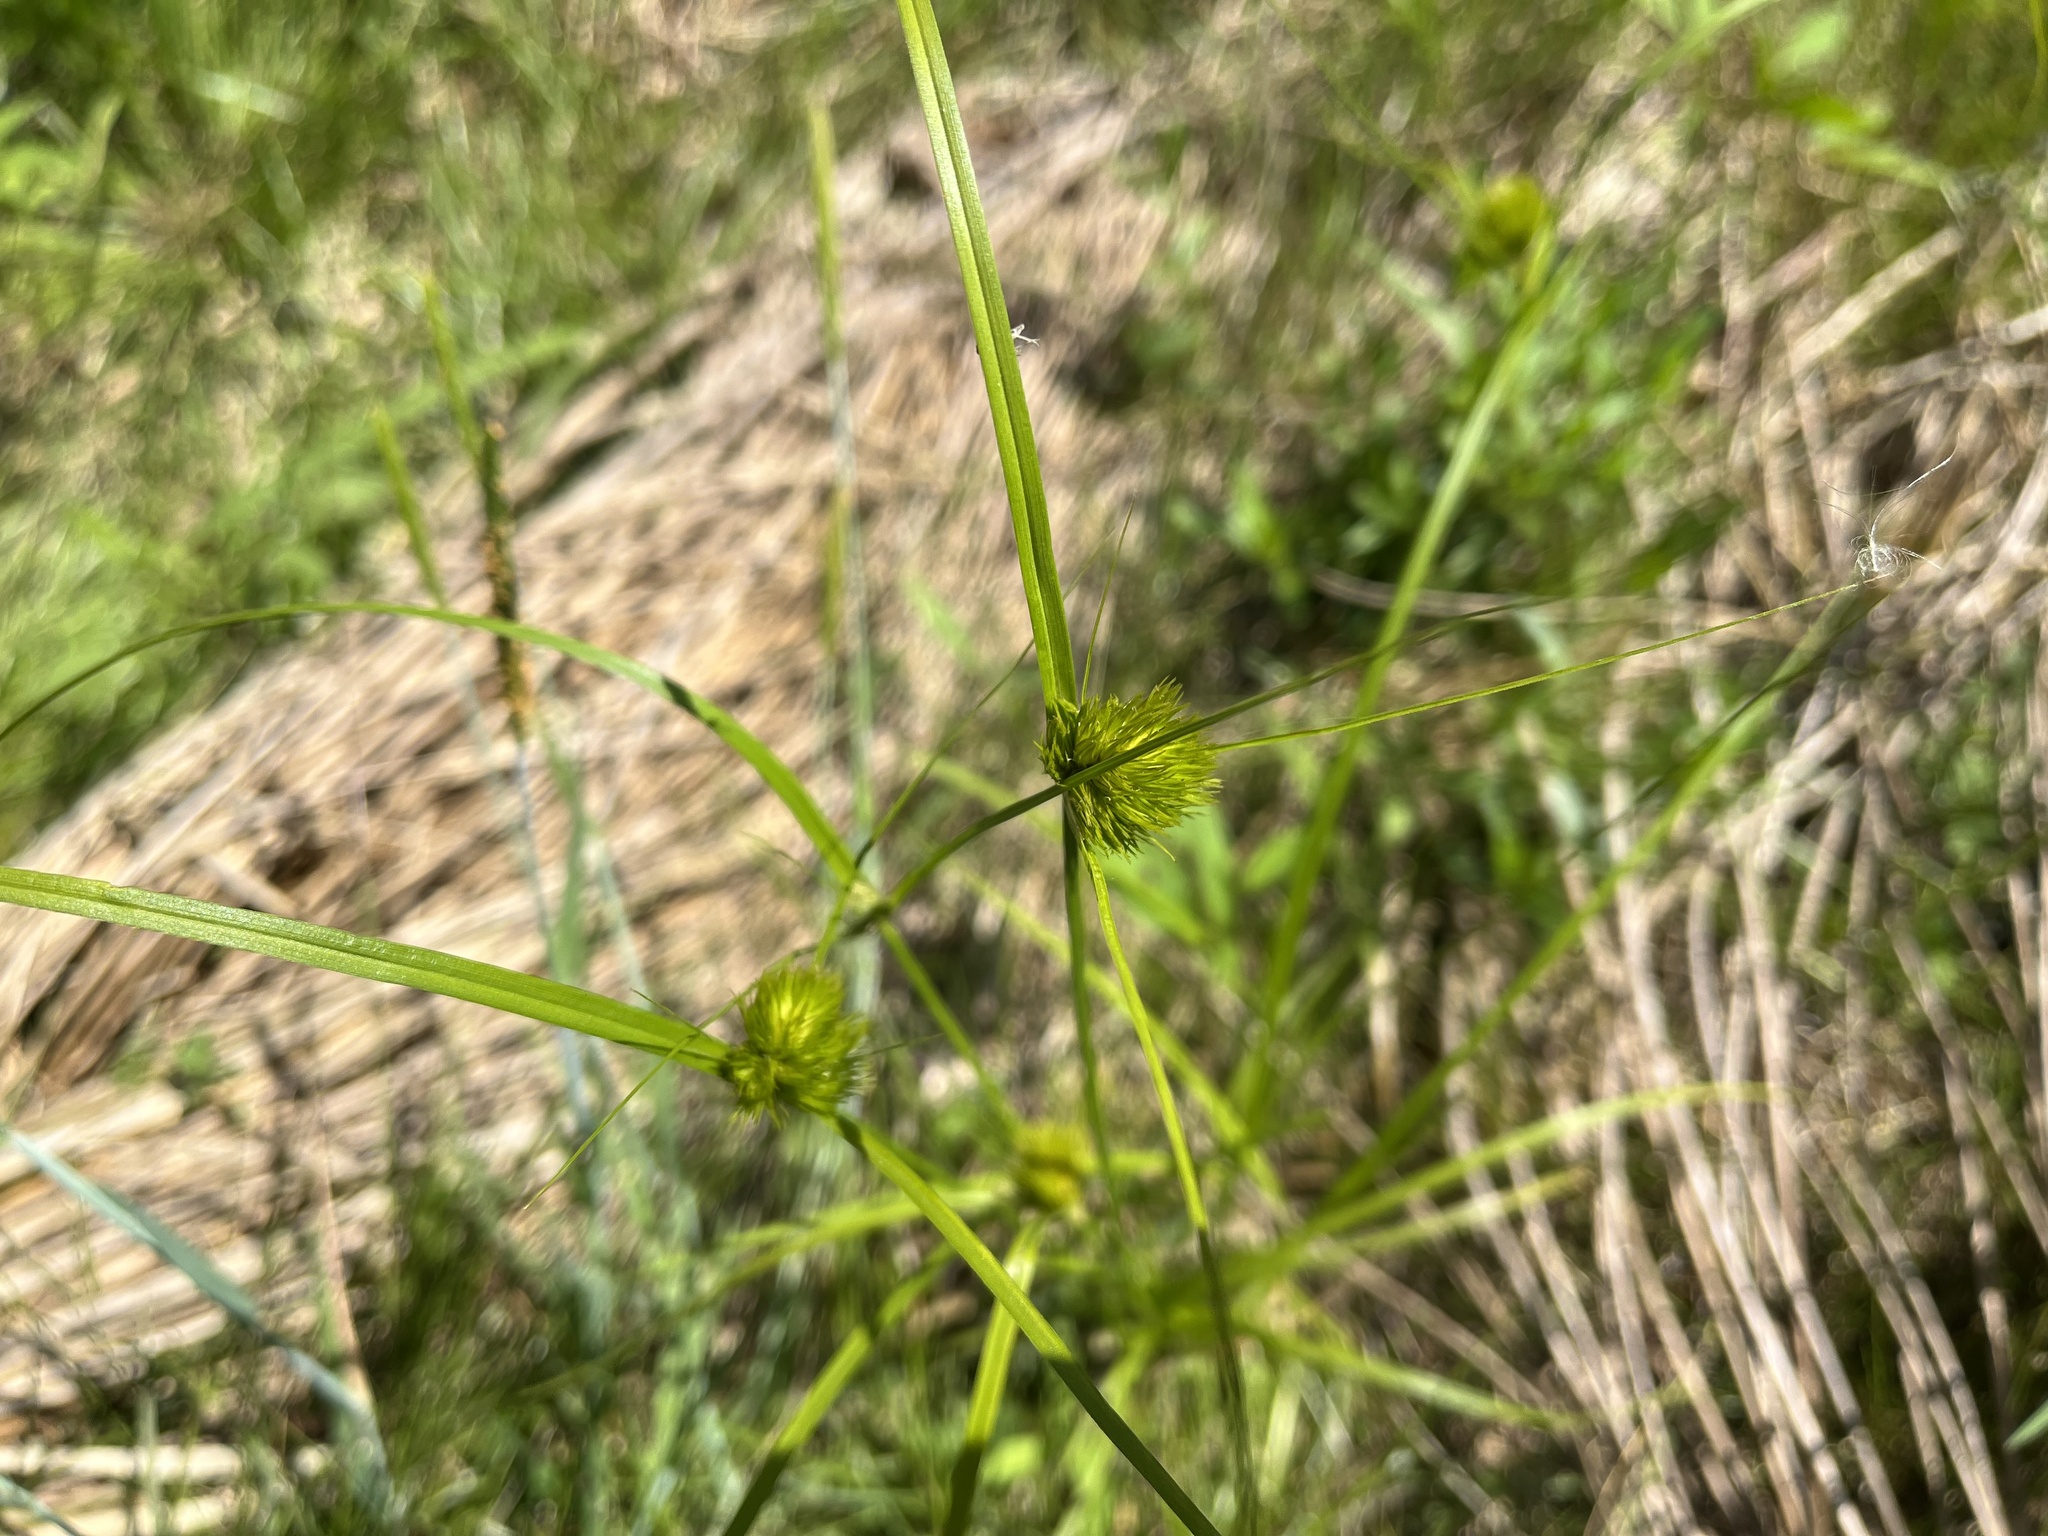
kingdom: Plantae
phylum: Tracheophyta
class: Liliopsida
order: Poales
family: Cyperaceae
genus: Carex
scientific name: Carex bohemica
